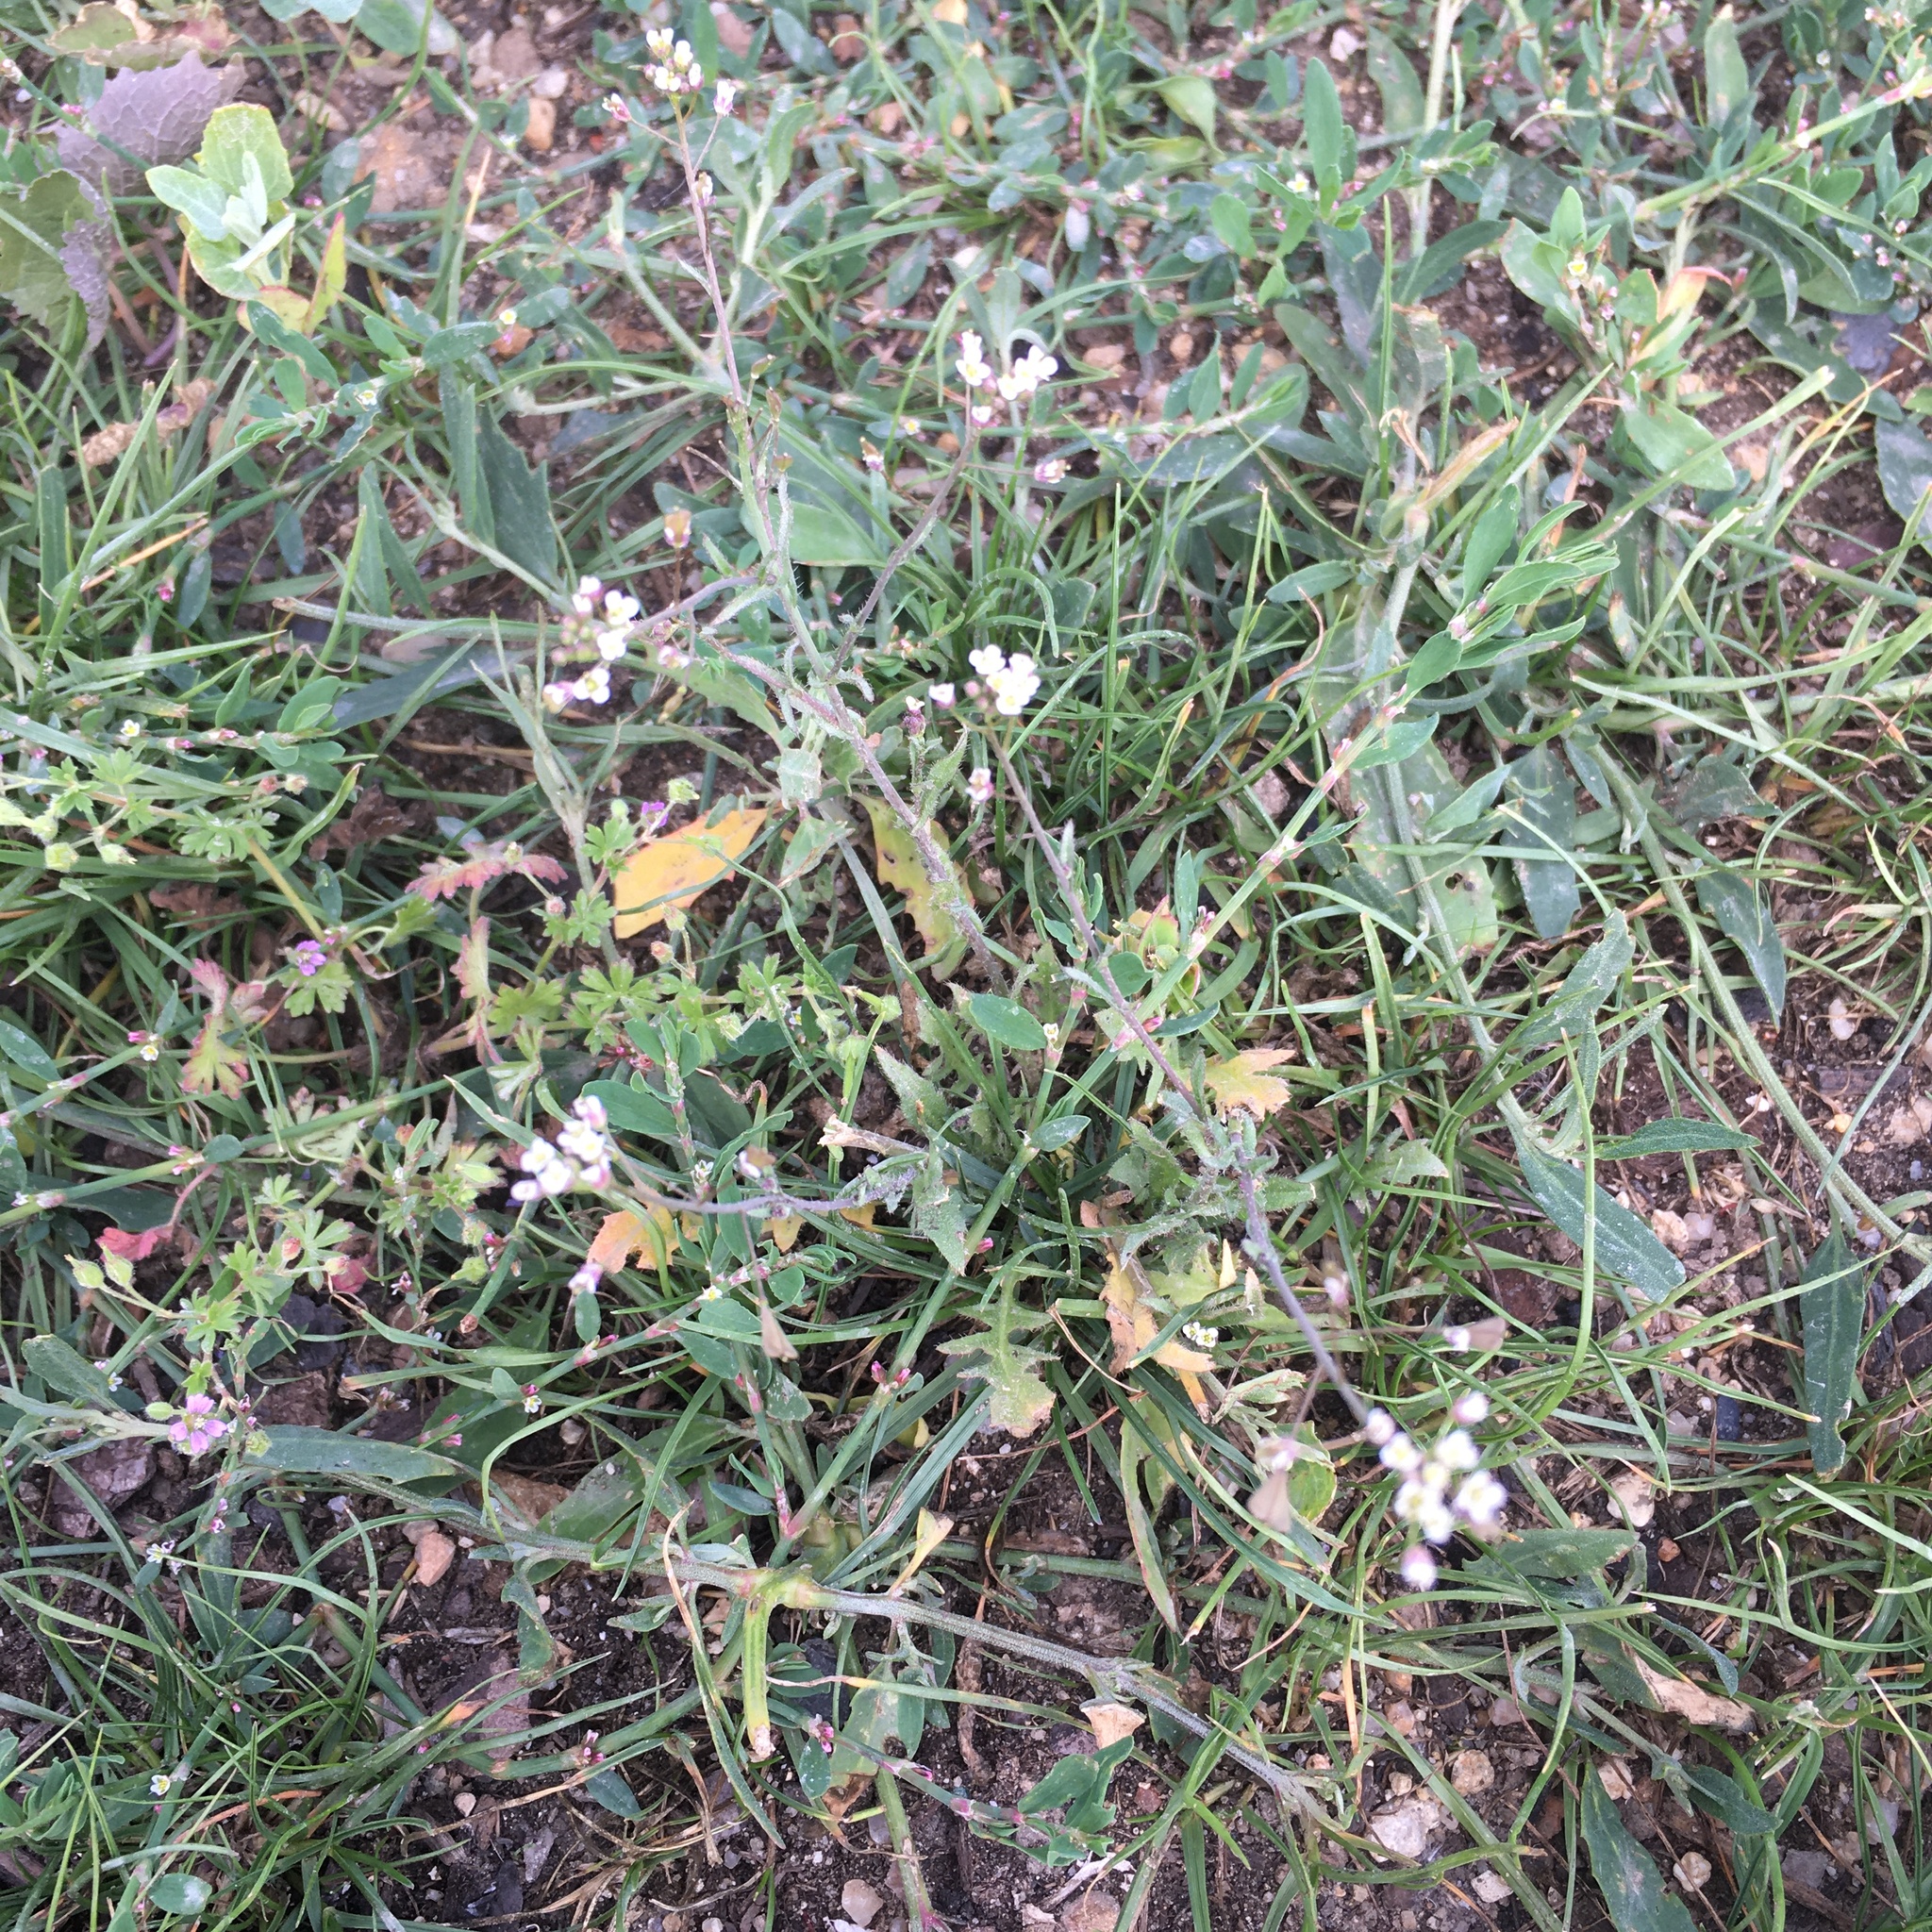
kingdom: Plantae
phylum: Tracheophyta
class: Magnoliopsida
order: Brassicales
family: Brassicaceae
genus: Capsella
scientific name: Capsella bursa-pastoris
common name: Shepherd's purse
